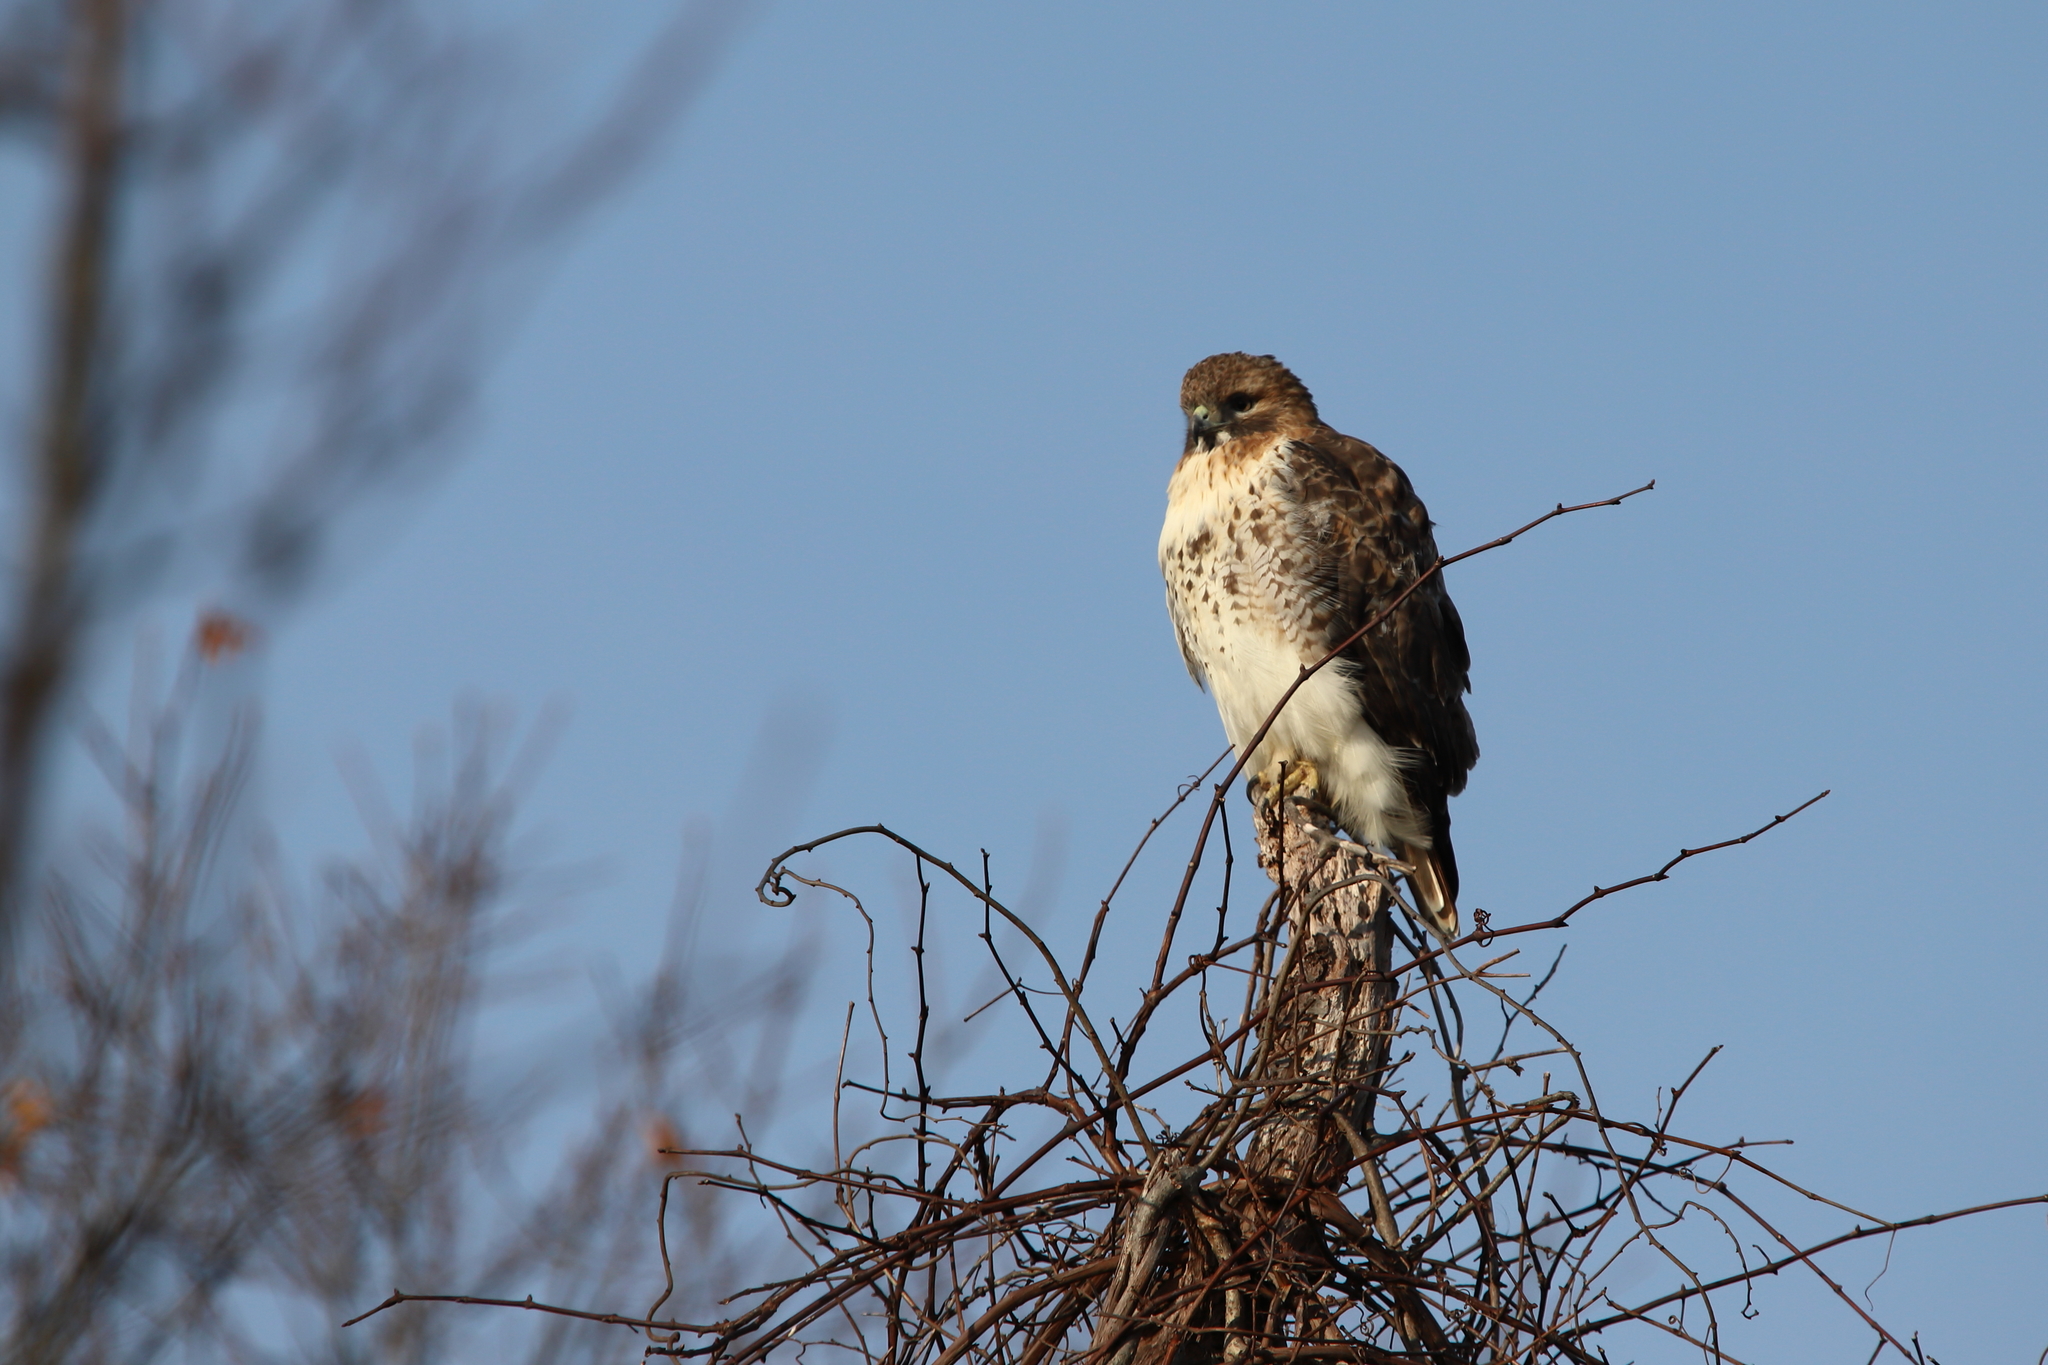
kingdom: Animalia
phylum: Chordata
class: Aves
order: Accipitriformes
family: Accipitridae
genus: Buteo
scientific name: Buteo jamaicensis
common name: Red-tailed hawk
